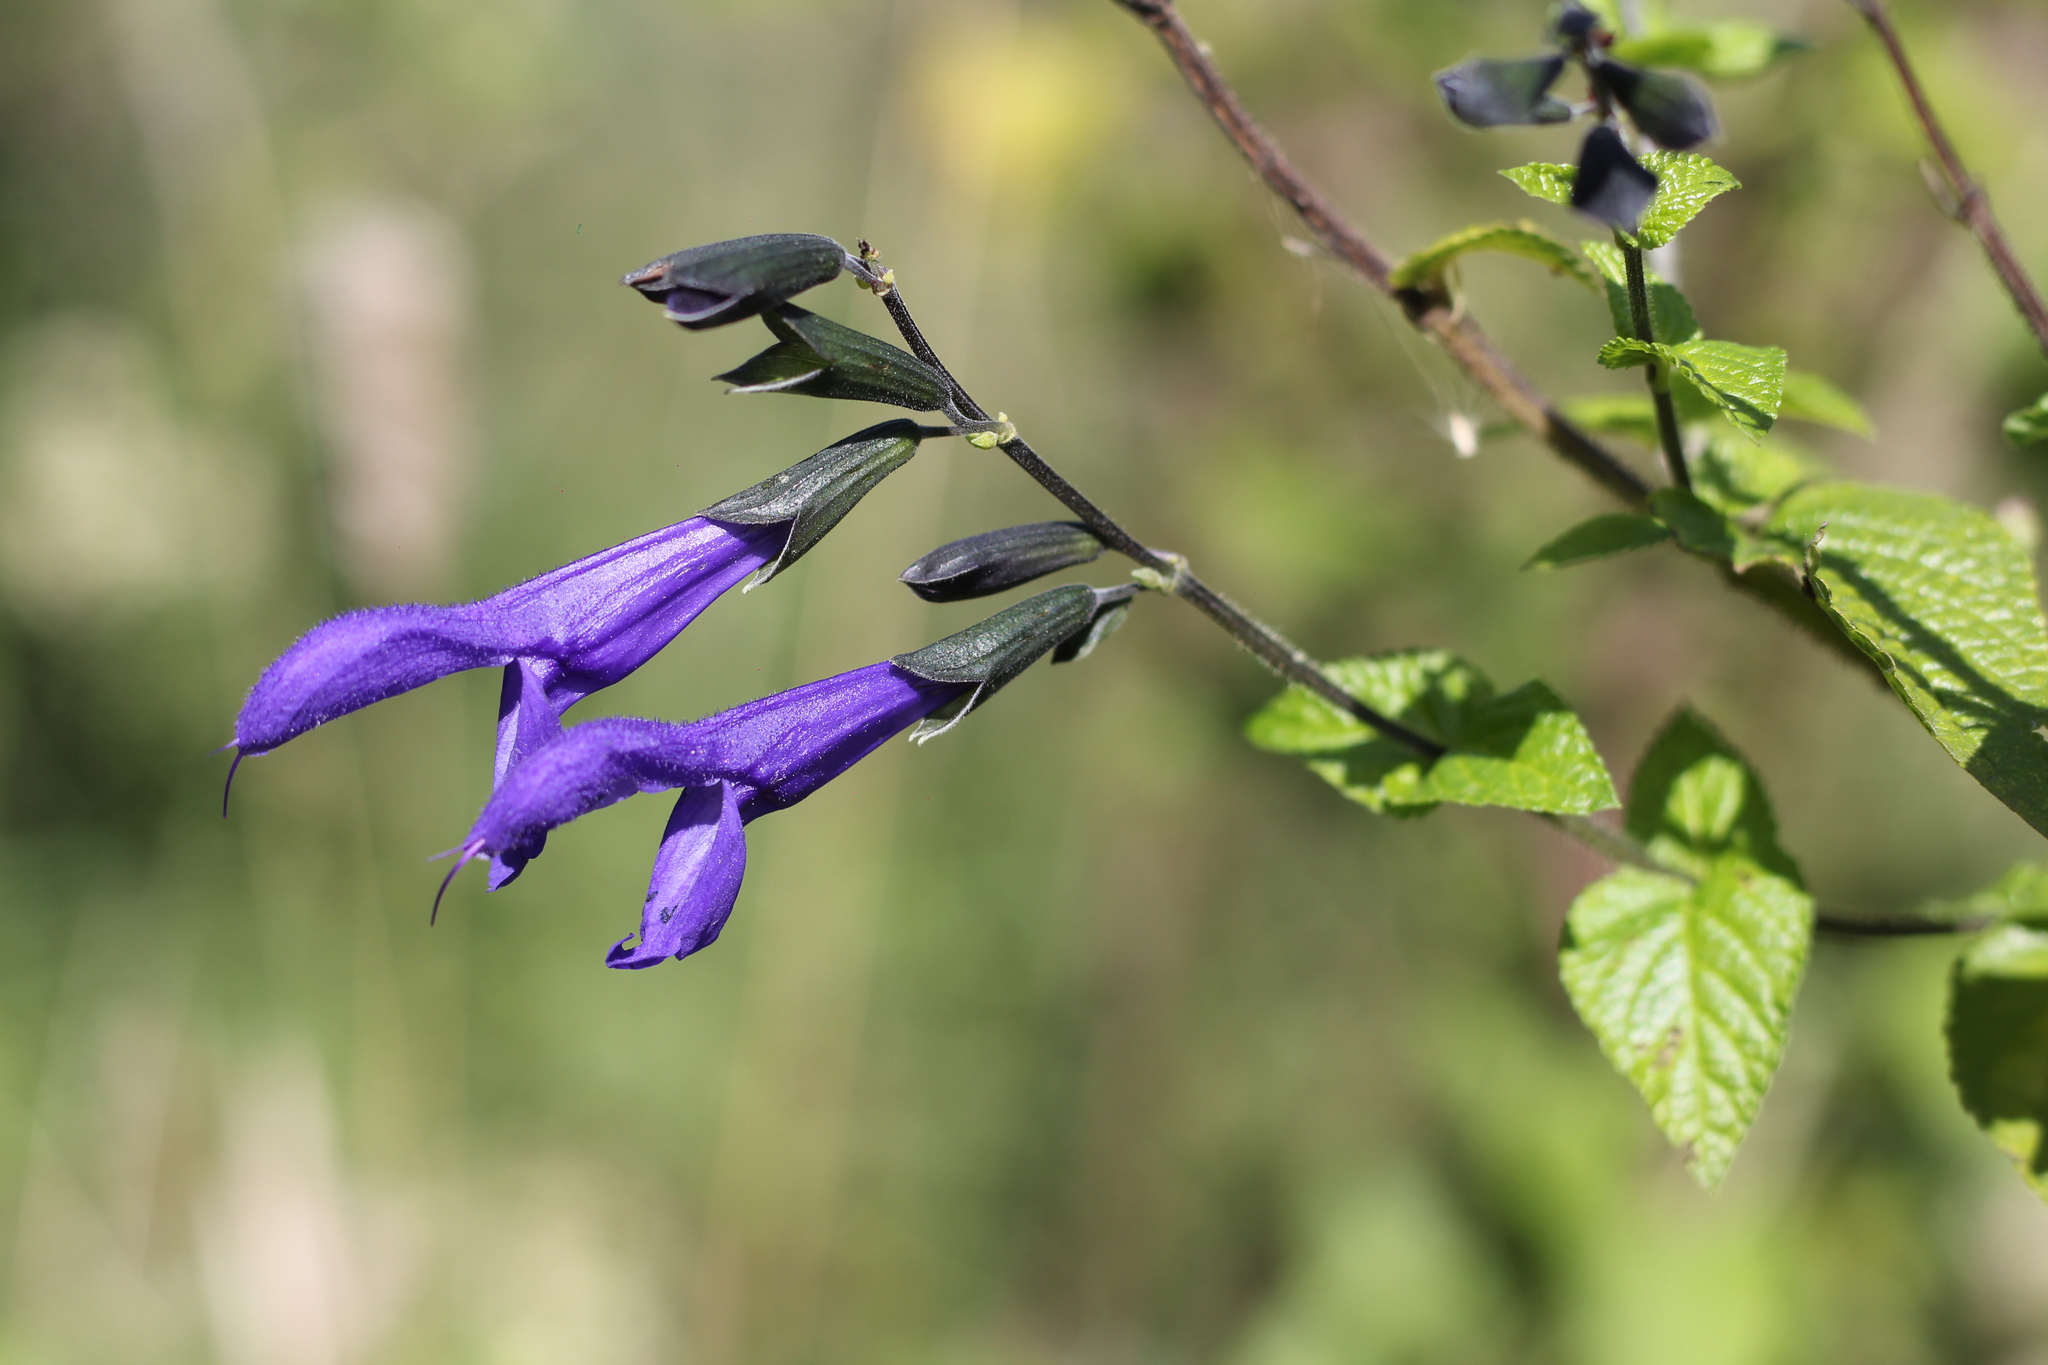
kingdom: Plantae
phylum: Tracheophyta
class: Magnoliopsida
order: Lamiales
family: Lamiaceae
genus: Salvia
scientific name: Salvia guaranitica
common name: Anise-scented sage
